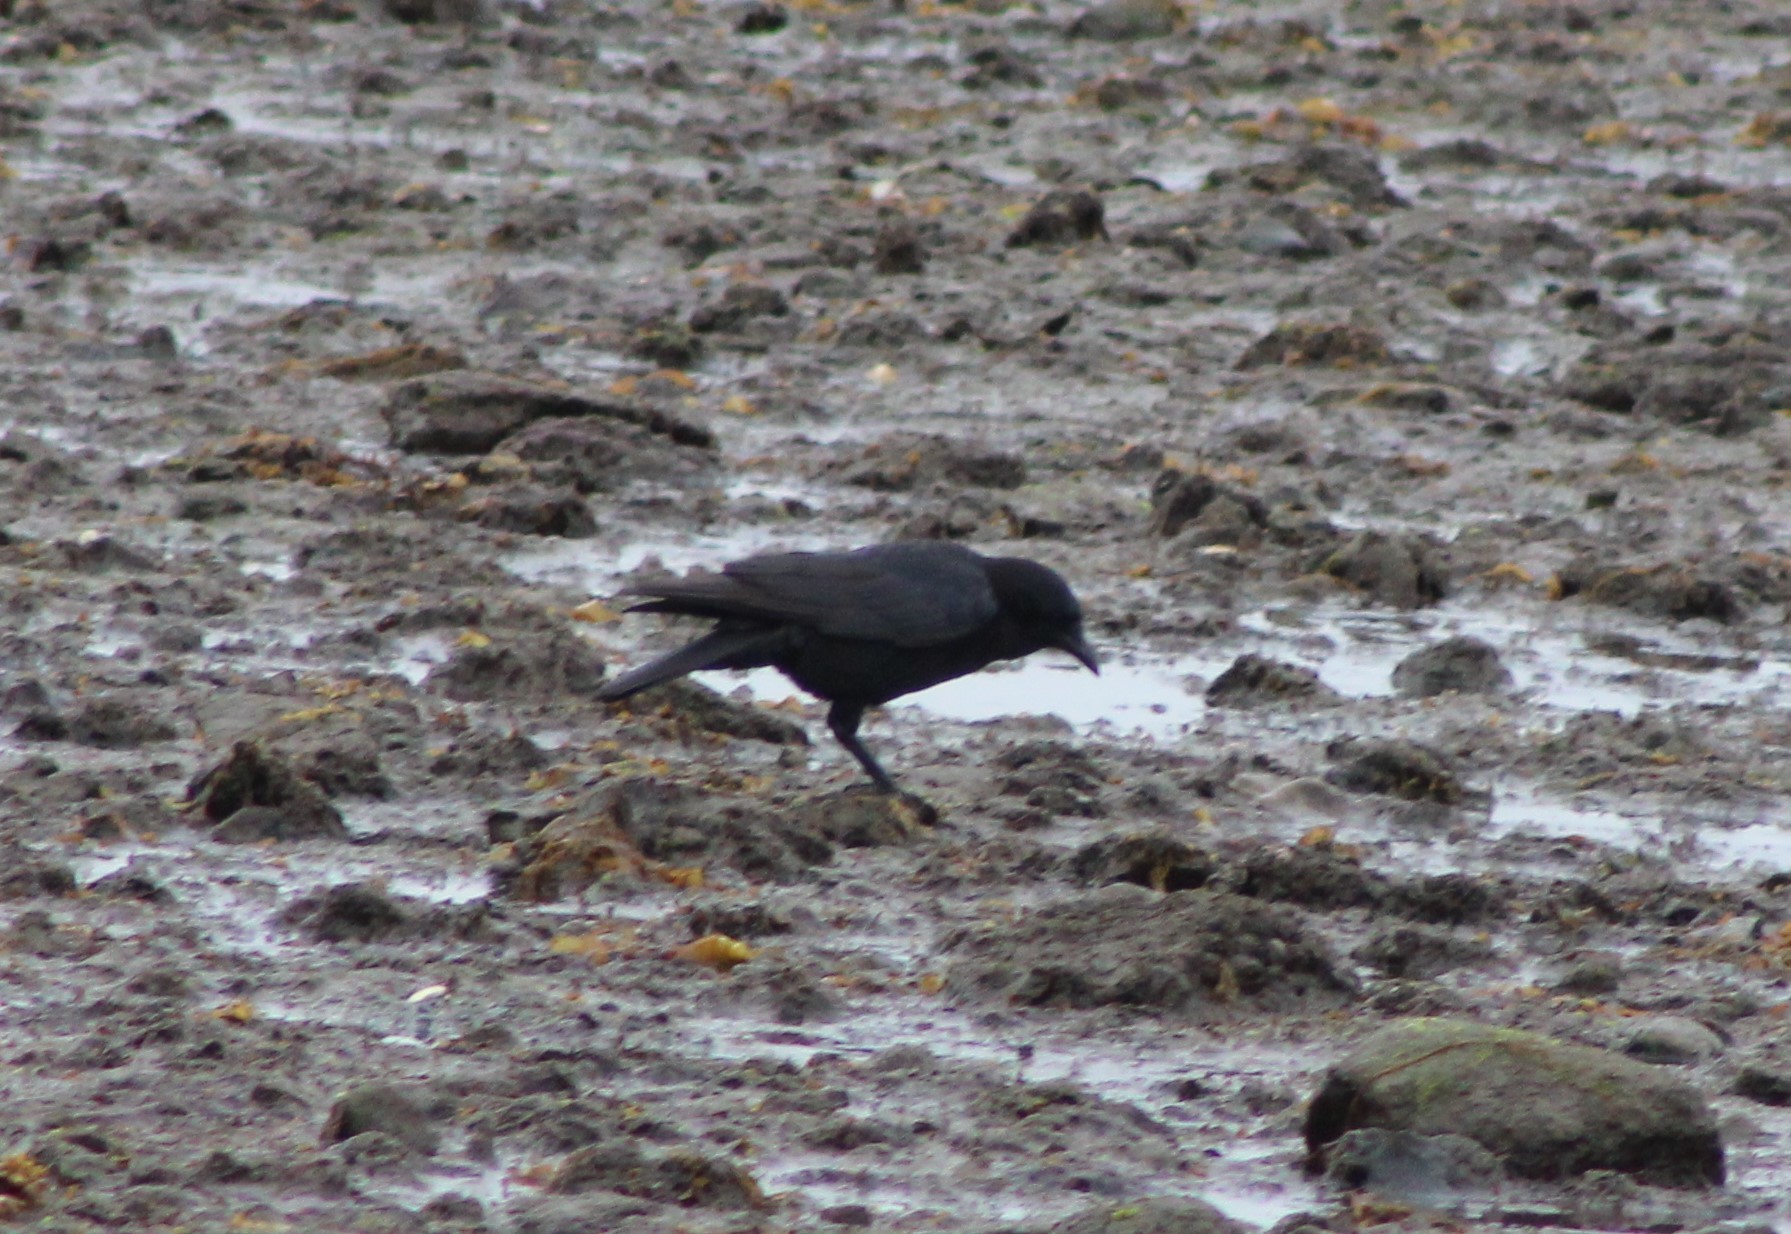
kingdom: Animalia
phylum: Chordata
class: Aves
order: Passeriformes
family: Corvidae
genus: Corvus
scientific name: Corvus ossifragus
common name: Fish crow
